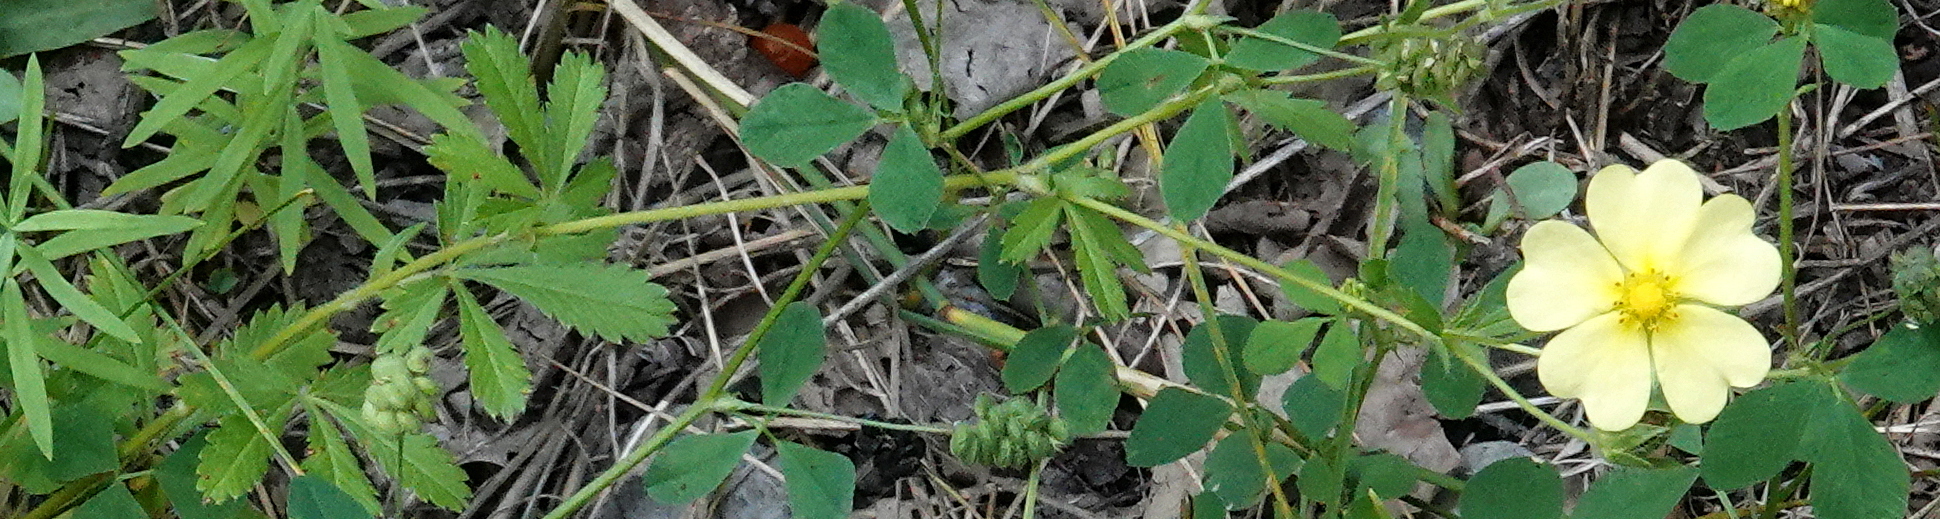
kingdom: Plantae
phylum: Tracheophyta
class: Magnoliopsida
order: Rosales
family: Rosaceae
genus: Potentilla
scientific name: Potentilla recta
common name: Sulphur cinquefoil
